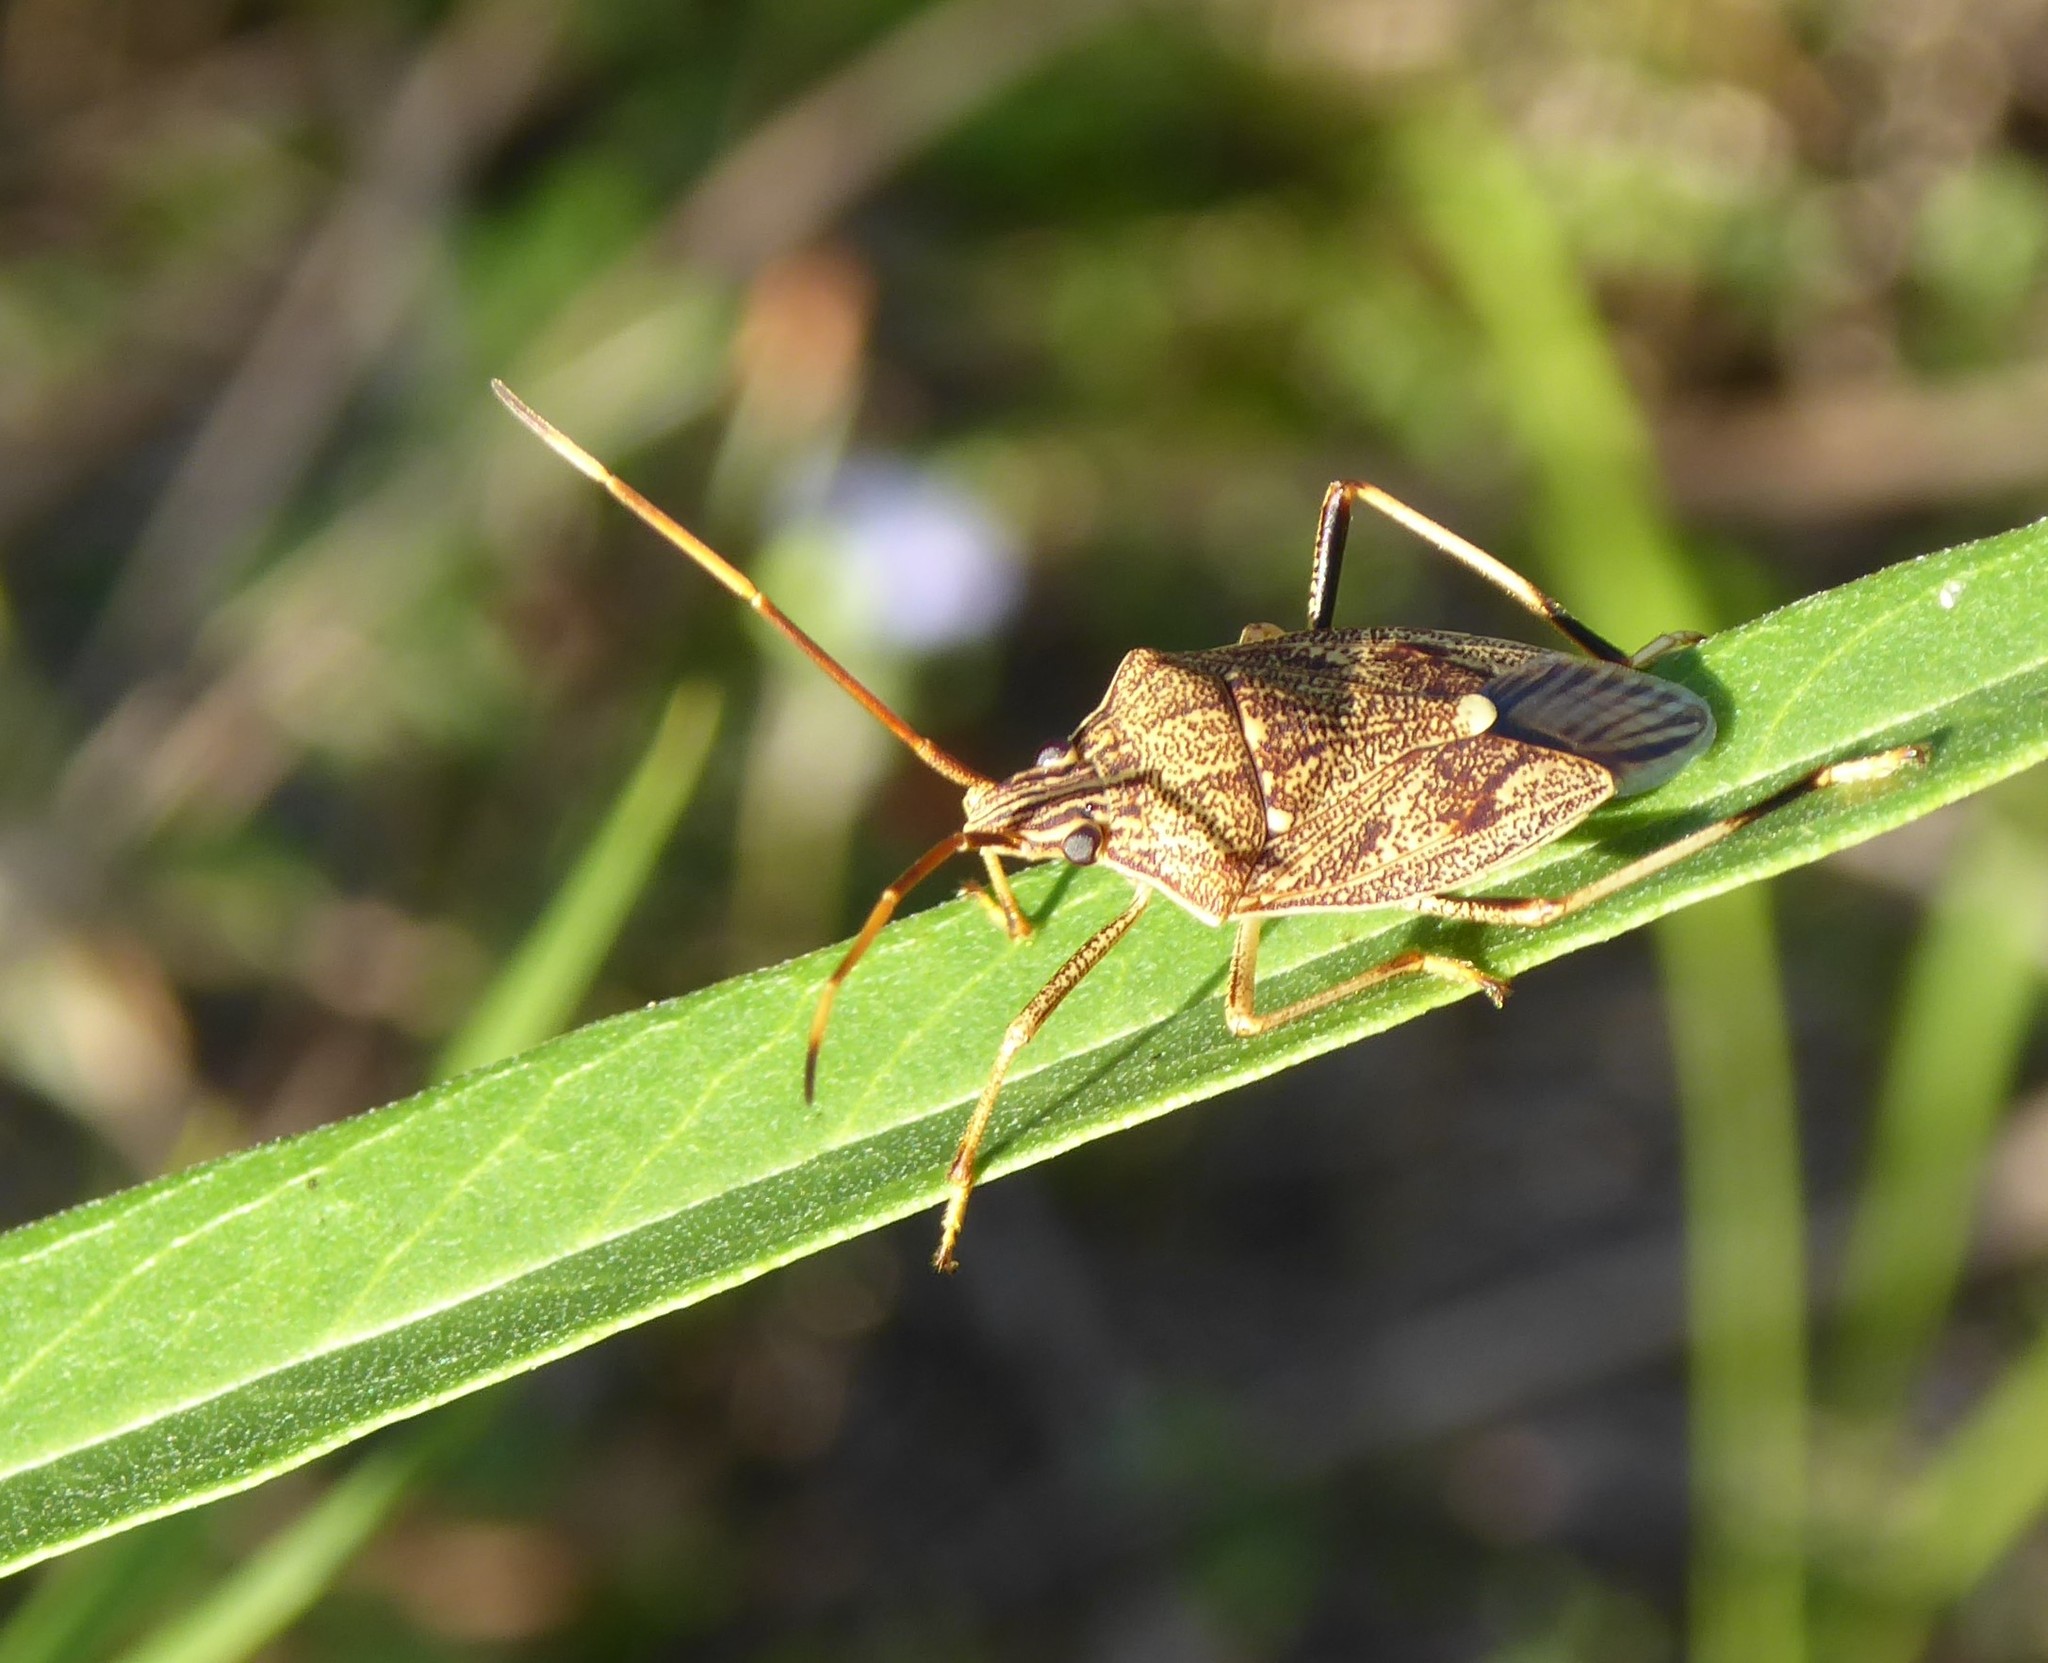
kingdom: Animalia
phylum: Arthropoda
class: Insecta
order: Hemiptera
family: Pentatomidae
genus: Poecilometis
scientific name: Poecilometis
